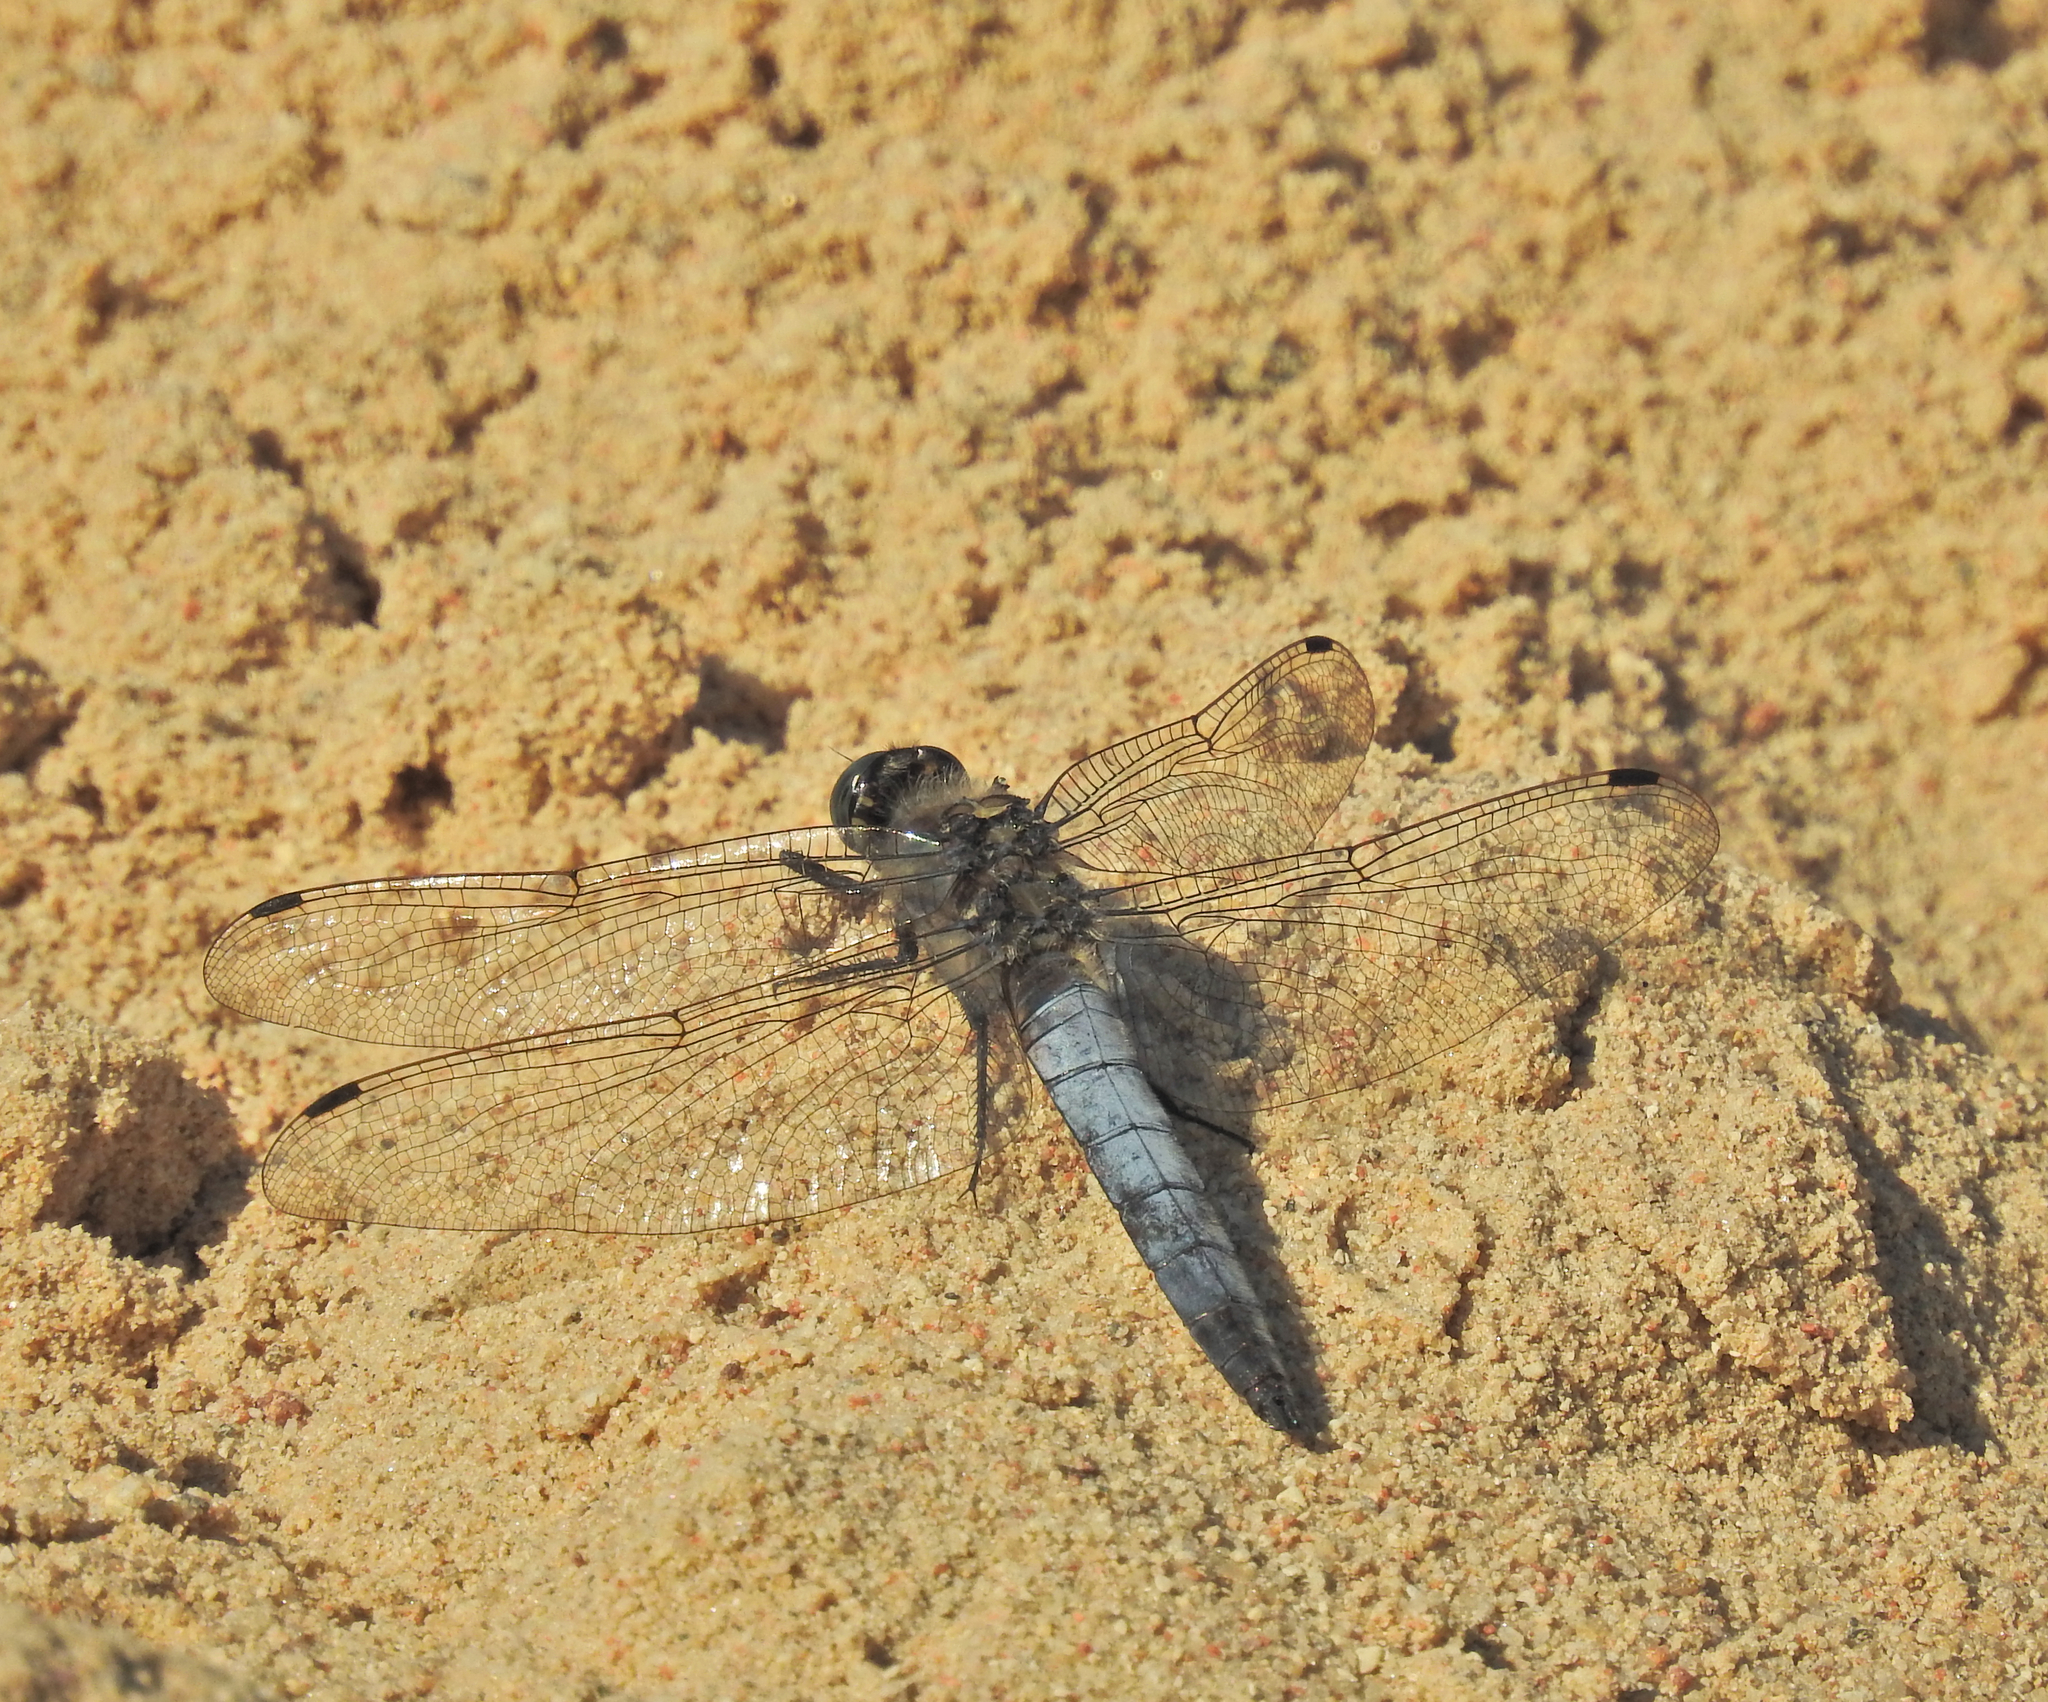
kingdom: Animalia
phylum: Arthropoda
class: Insecta
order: Odonata
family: Libellulidae
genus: Orthetrum
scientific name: Orthetrum cancellatum
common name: Black-tailed skimmer
